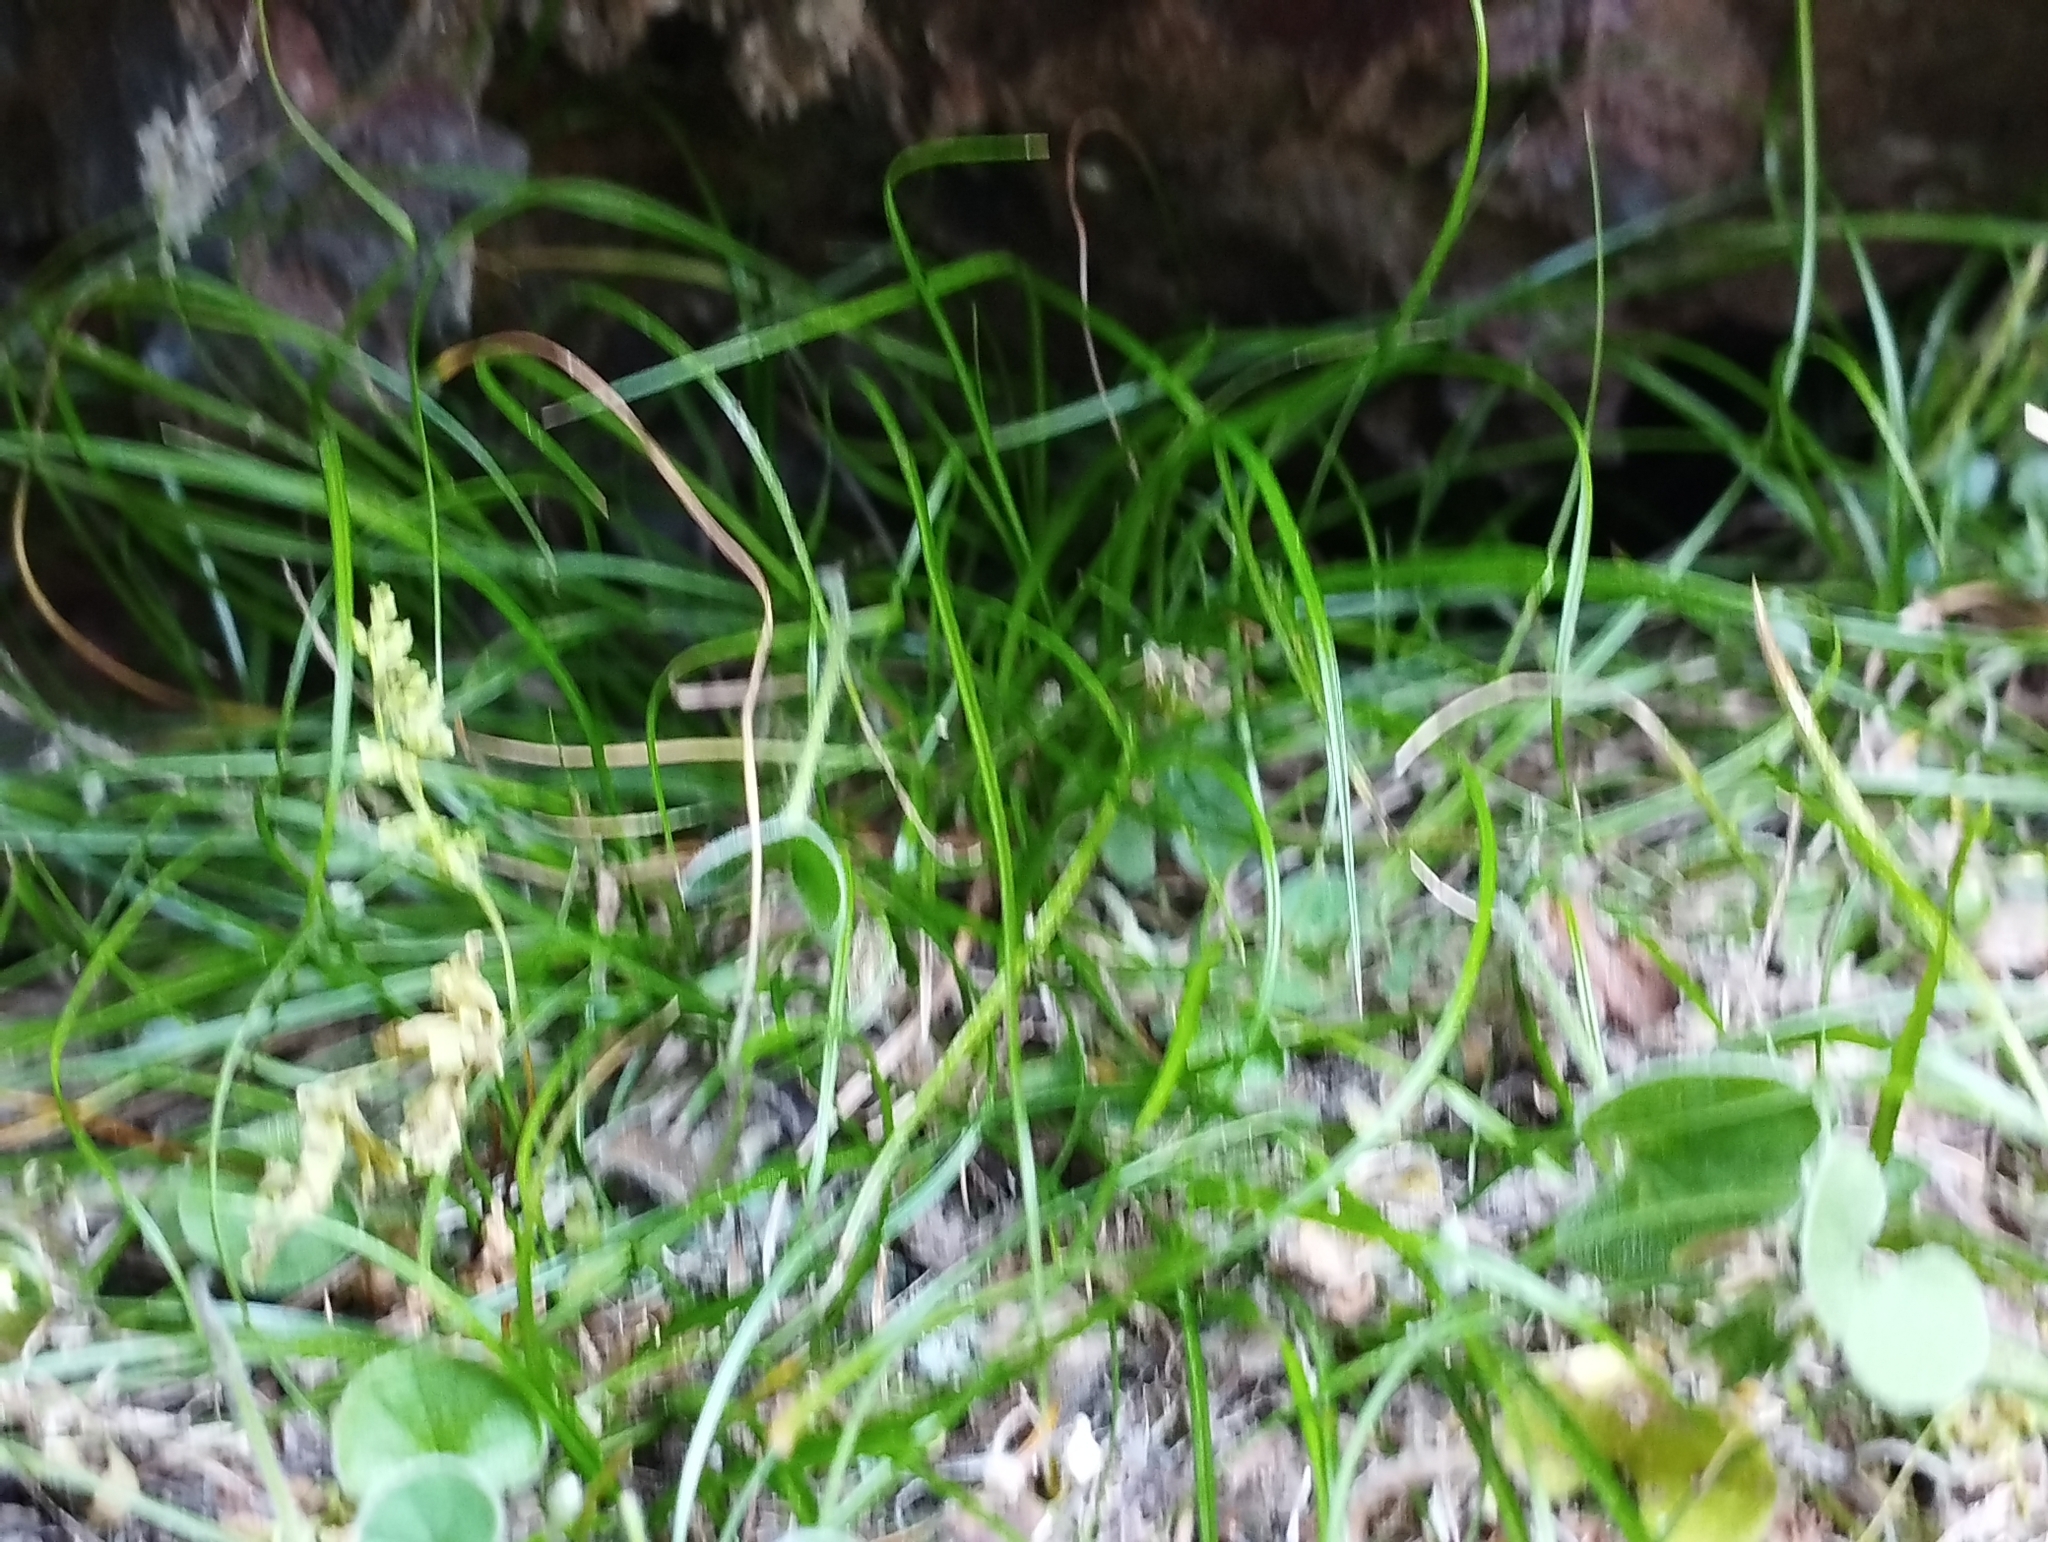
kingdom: Plantae
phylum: Tracheophyta
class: Polypodiopsida
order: Polypodiales
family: Pteridaceae
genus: Anogramma
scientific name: Anogramma leptophylla
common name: Jersey fern
